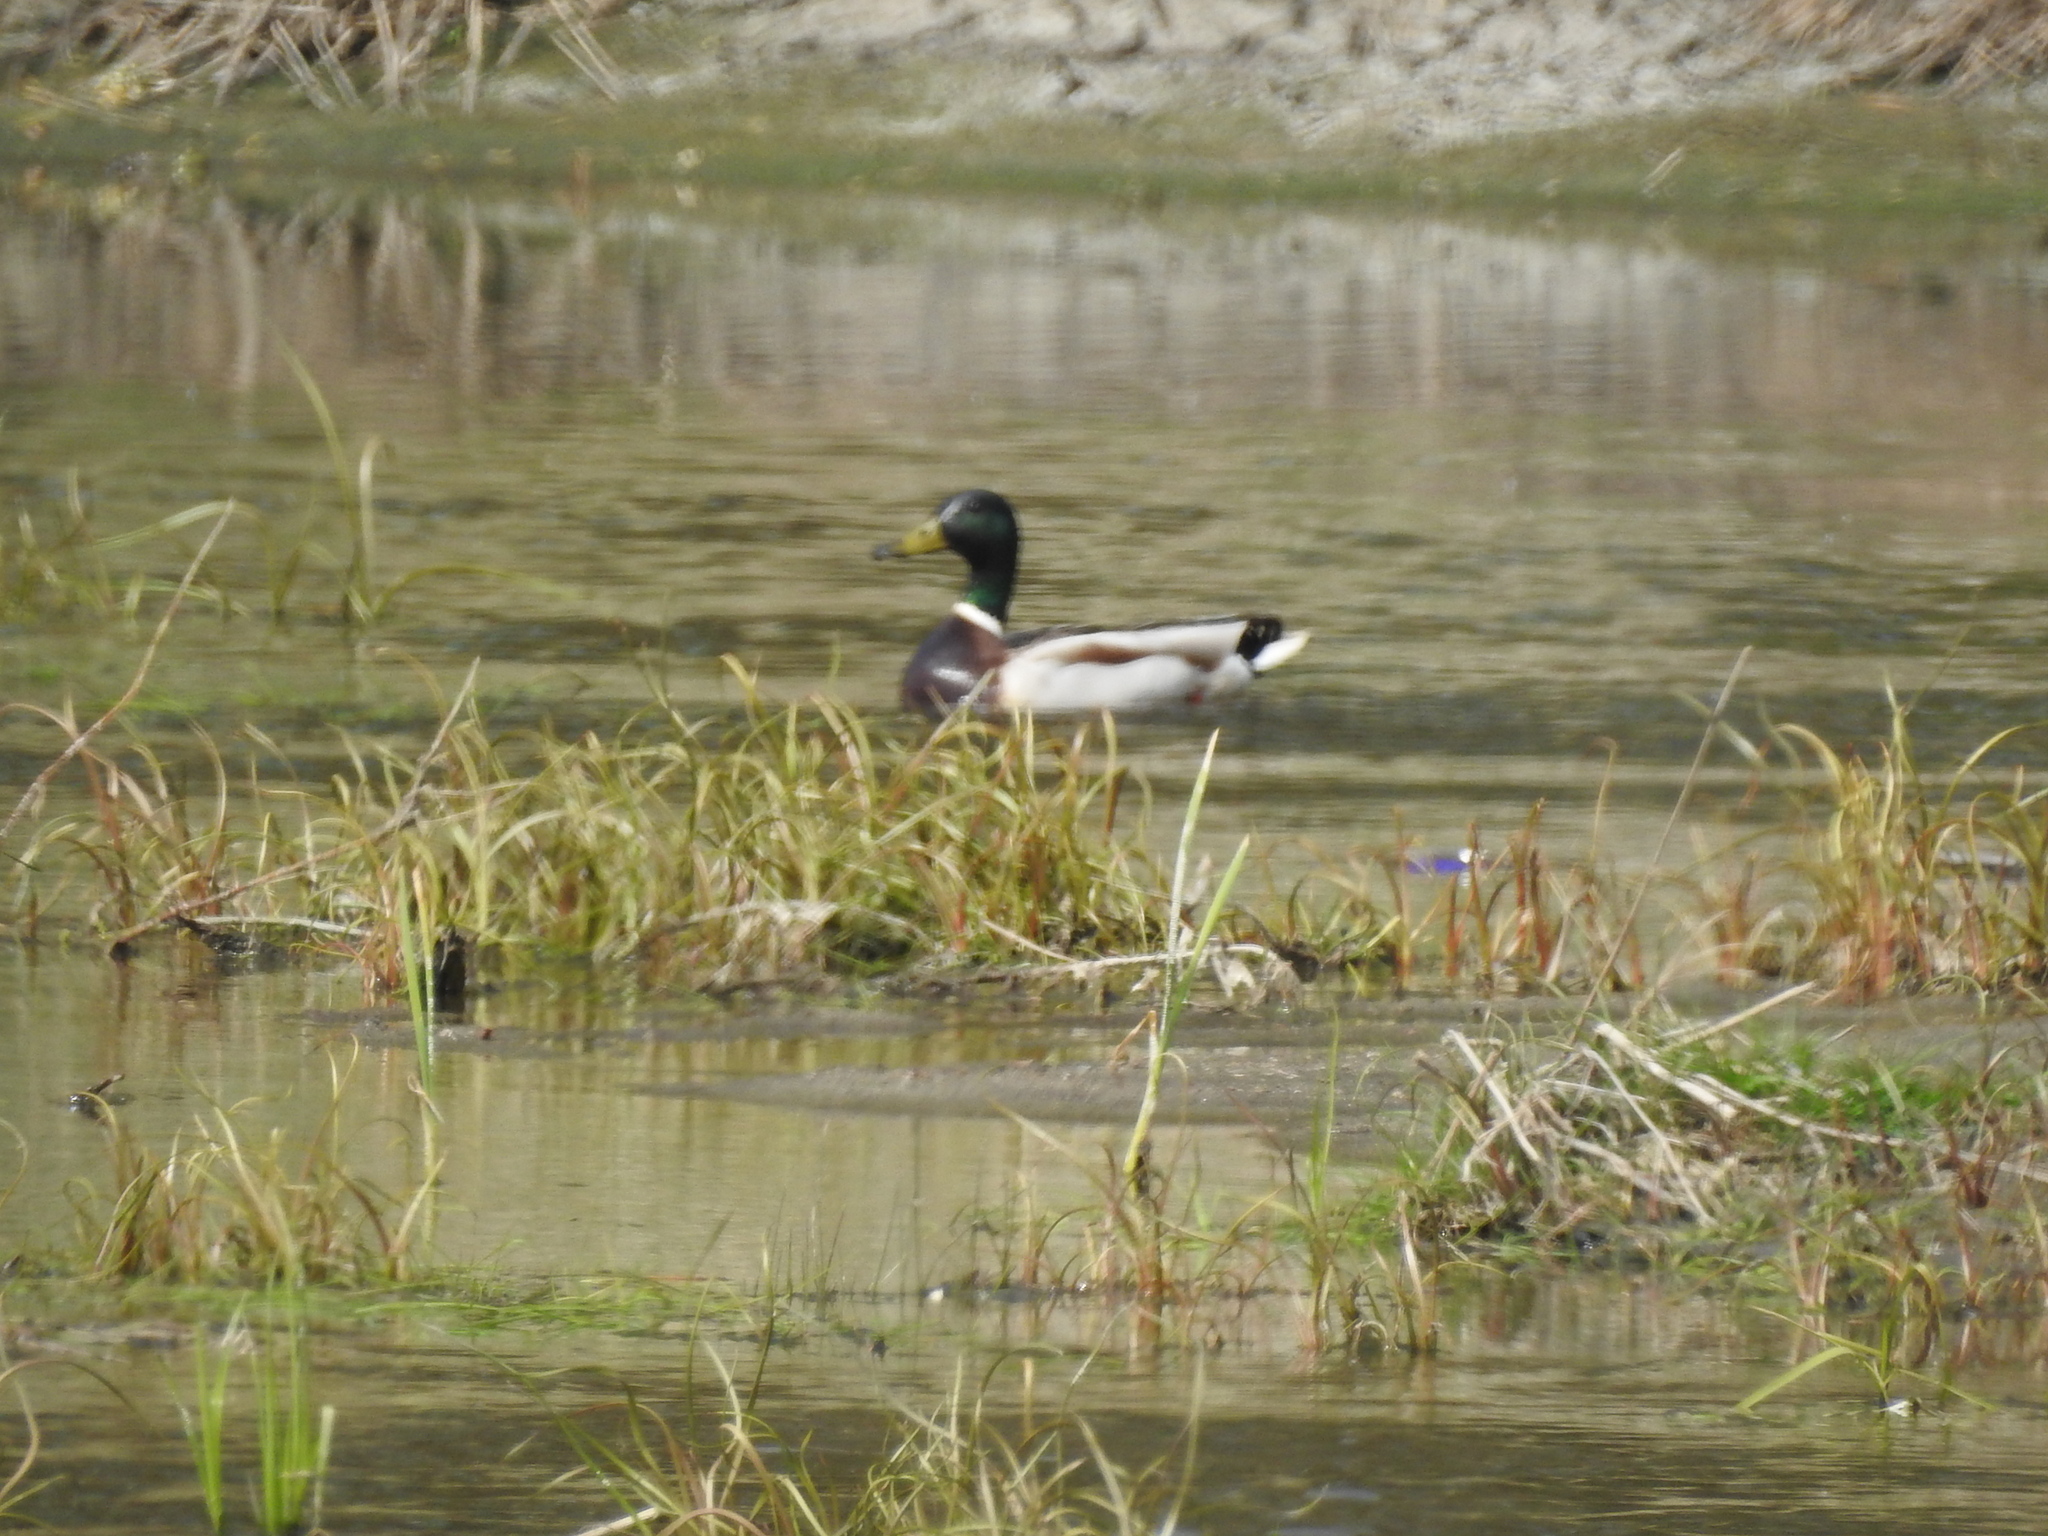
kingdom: Animalia
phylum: Chordata
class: Aves
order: Anseriformes
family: Anatidae
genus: Anas
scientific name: Anas platyrhynchos
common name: Mallard
